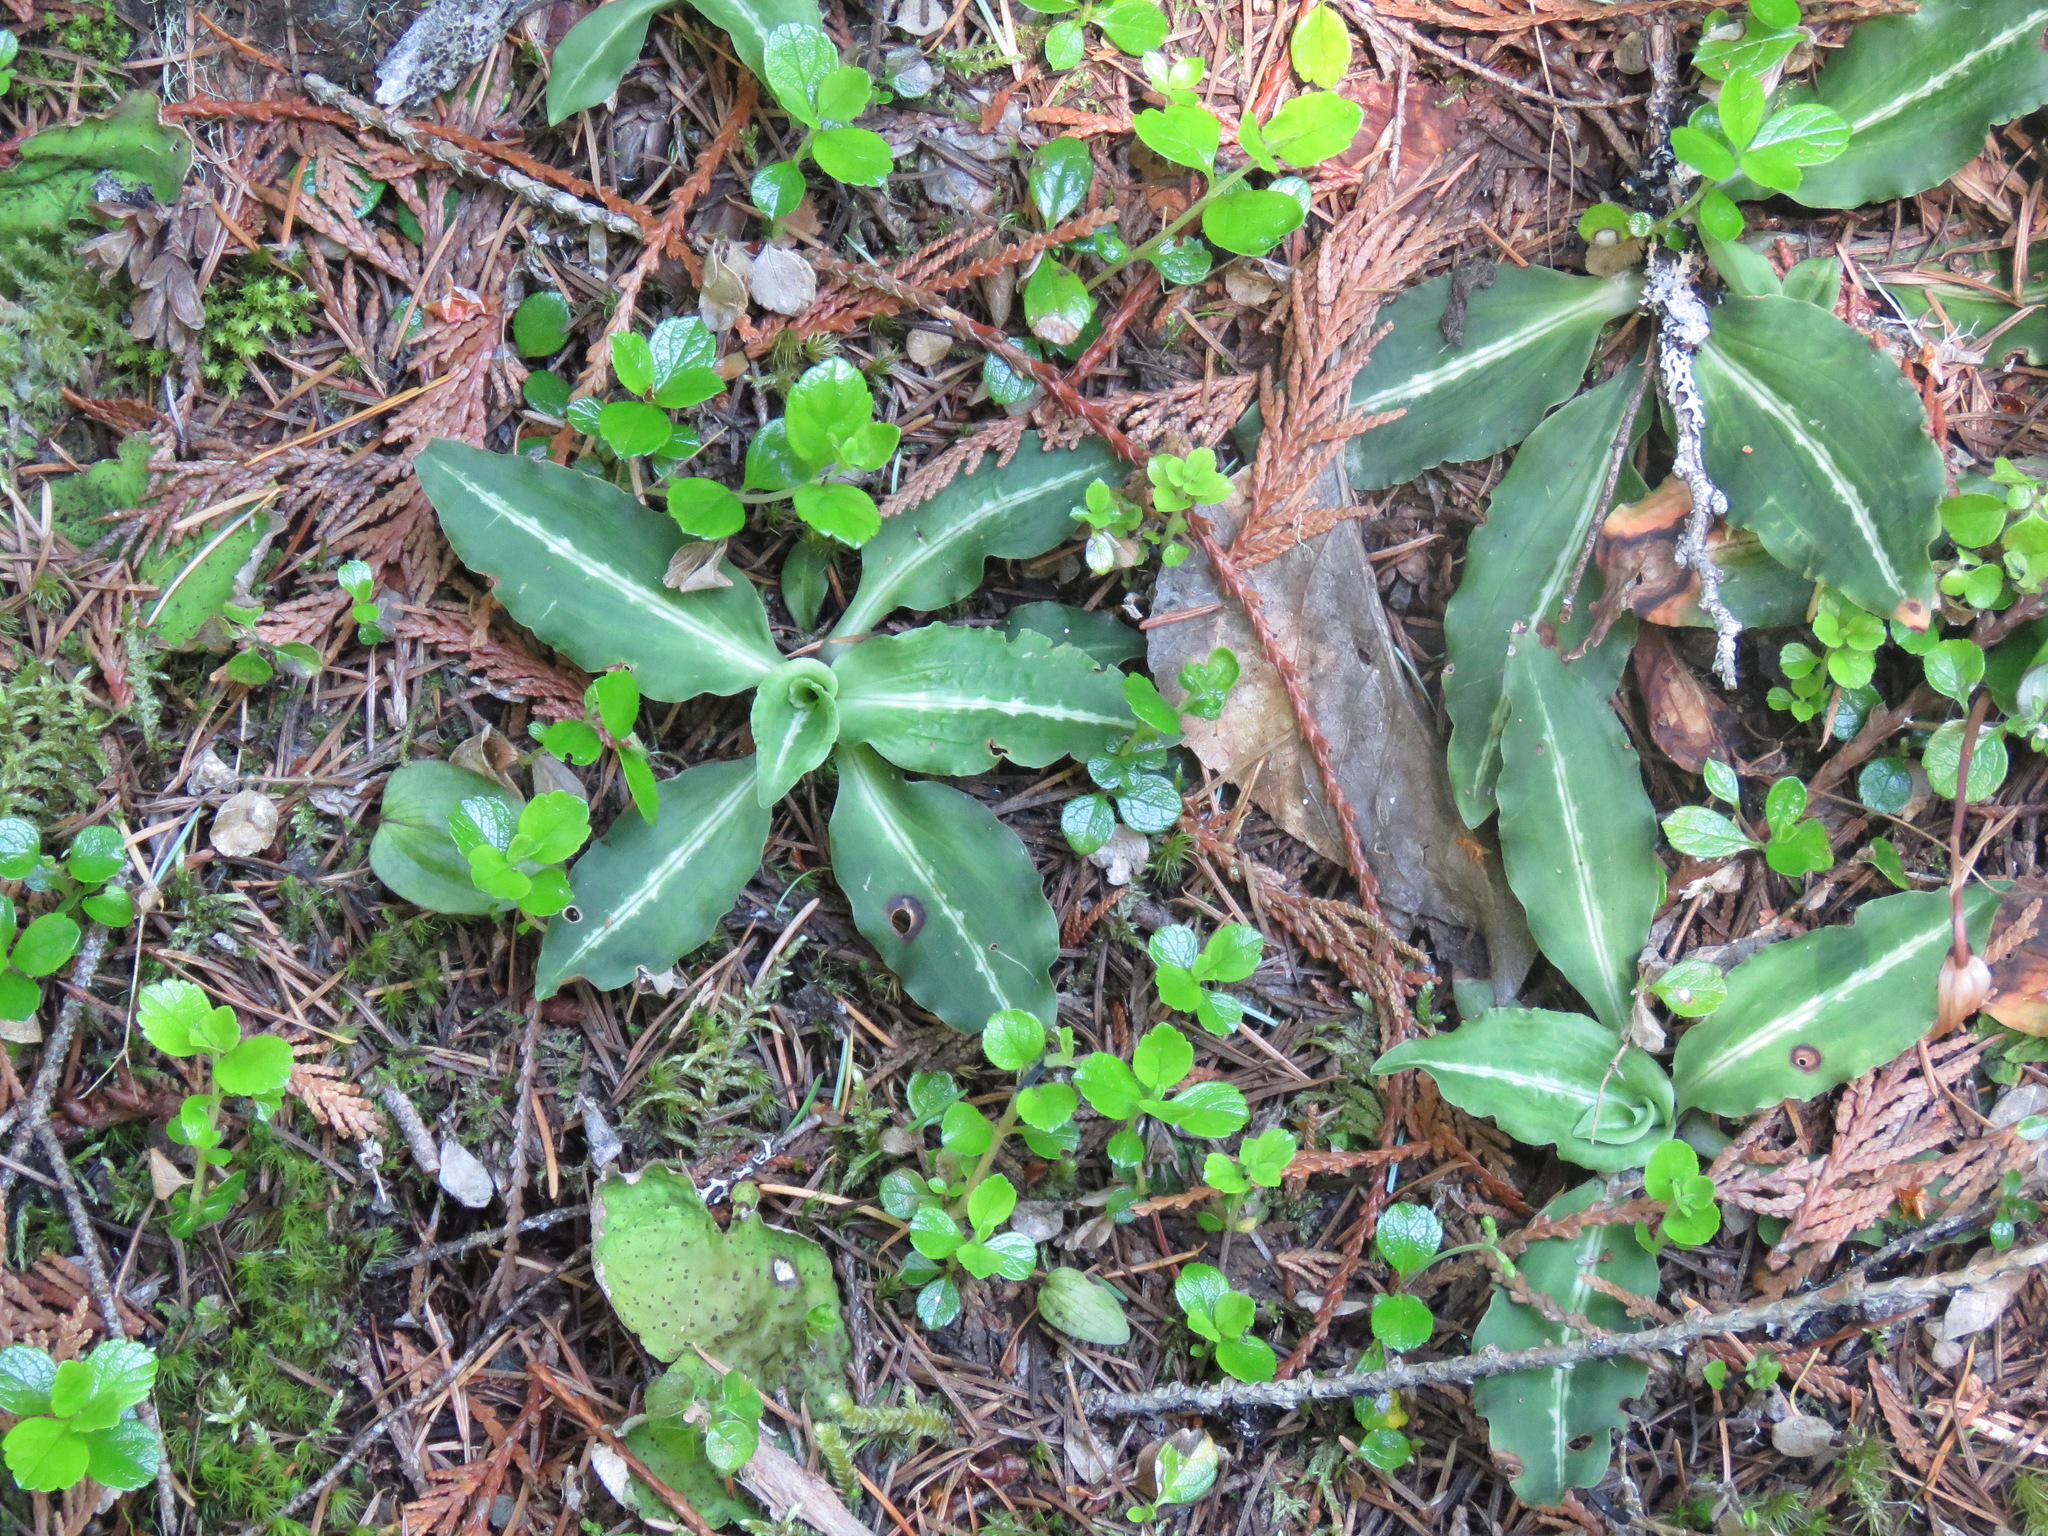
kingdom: Plantae
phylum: Tracheophyta
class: Liliopsida
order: Asparagales
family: Orchidaceae
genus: Goodyera
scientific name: Goodyera oblongifolia
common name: Giant rattlesnake-plantain
